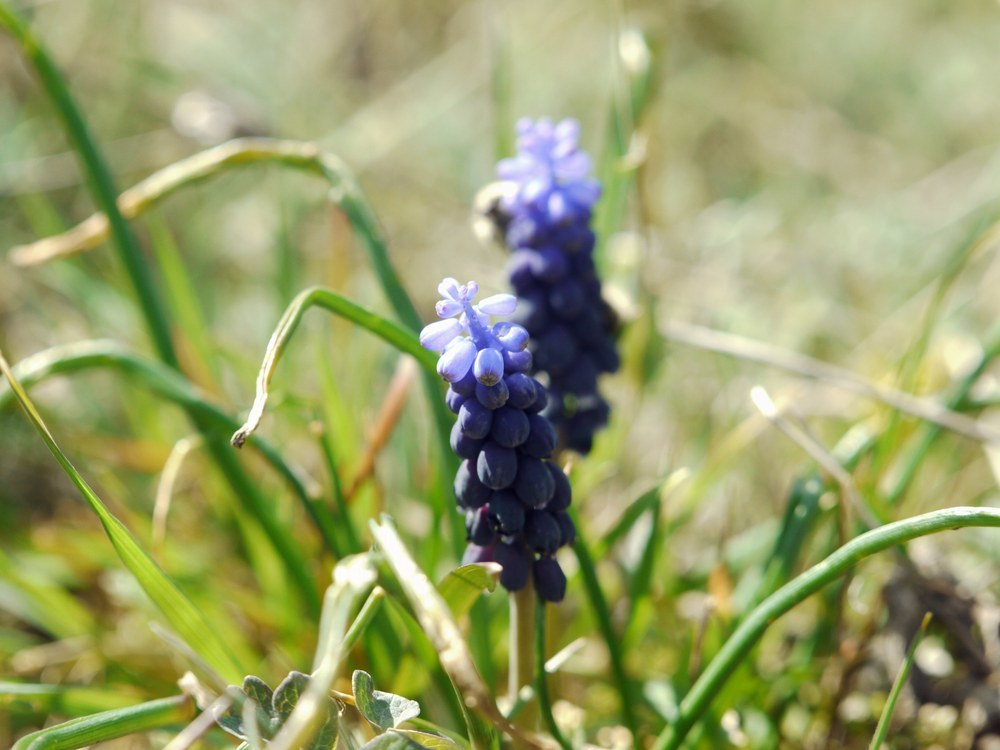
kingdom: Plantae
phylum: Tracheophyta
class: Liliopsida
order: Asparagales
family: Asparagaceae
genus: Muscari
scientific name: Muscari neglectum
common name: Grape-hyacinth
